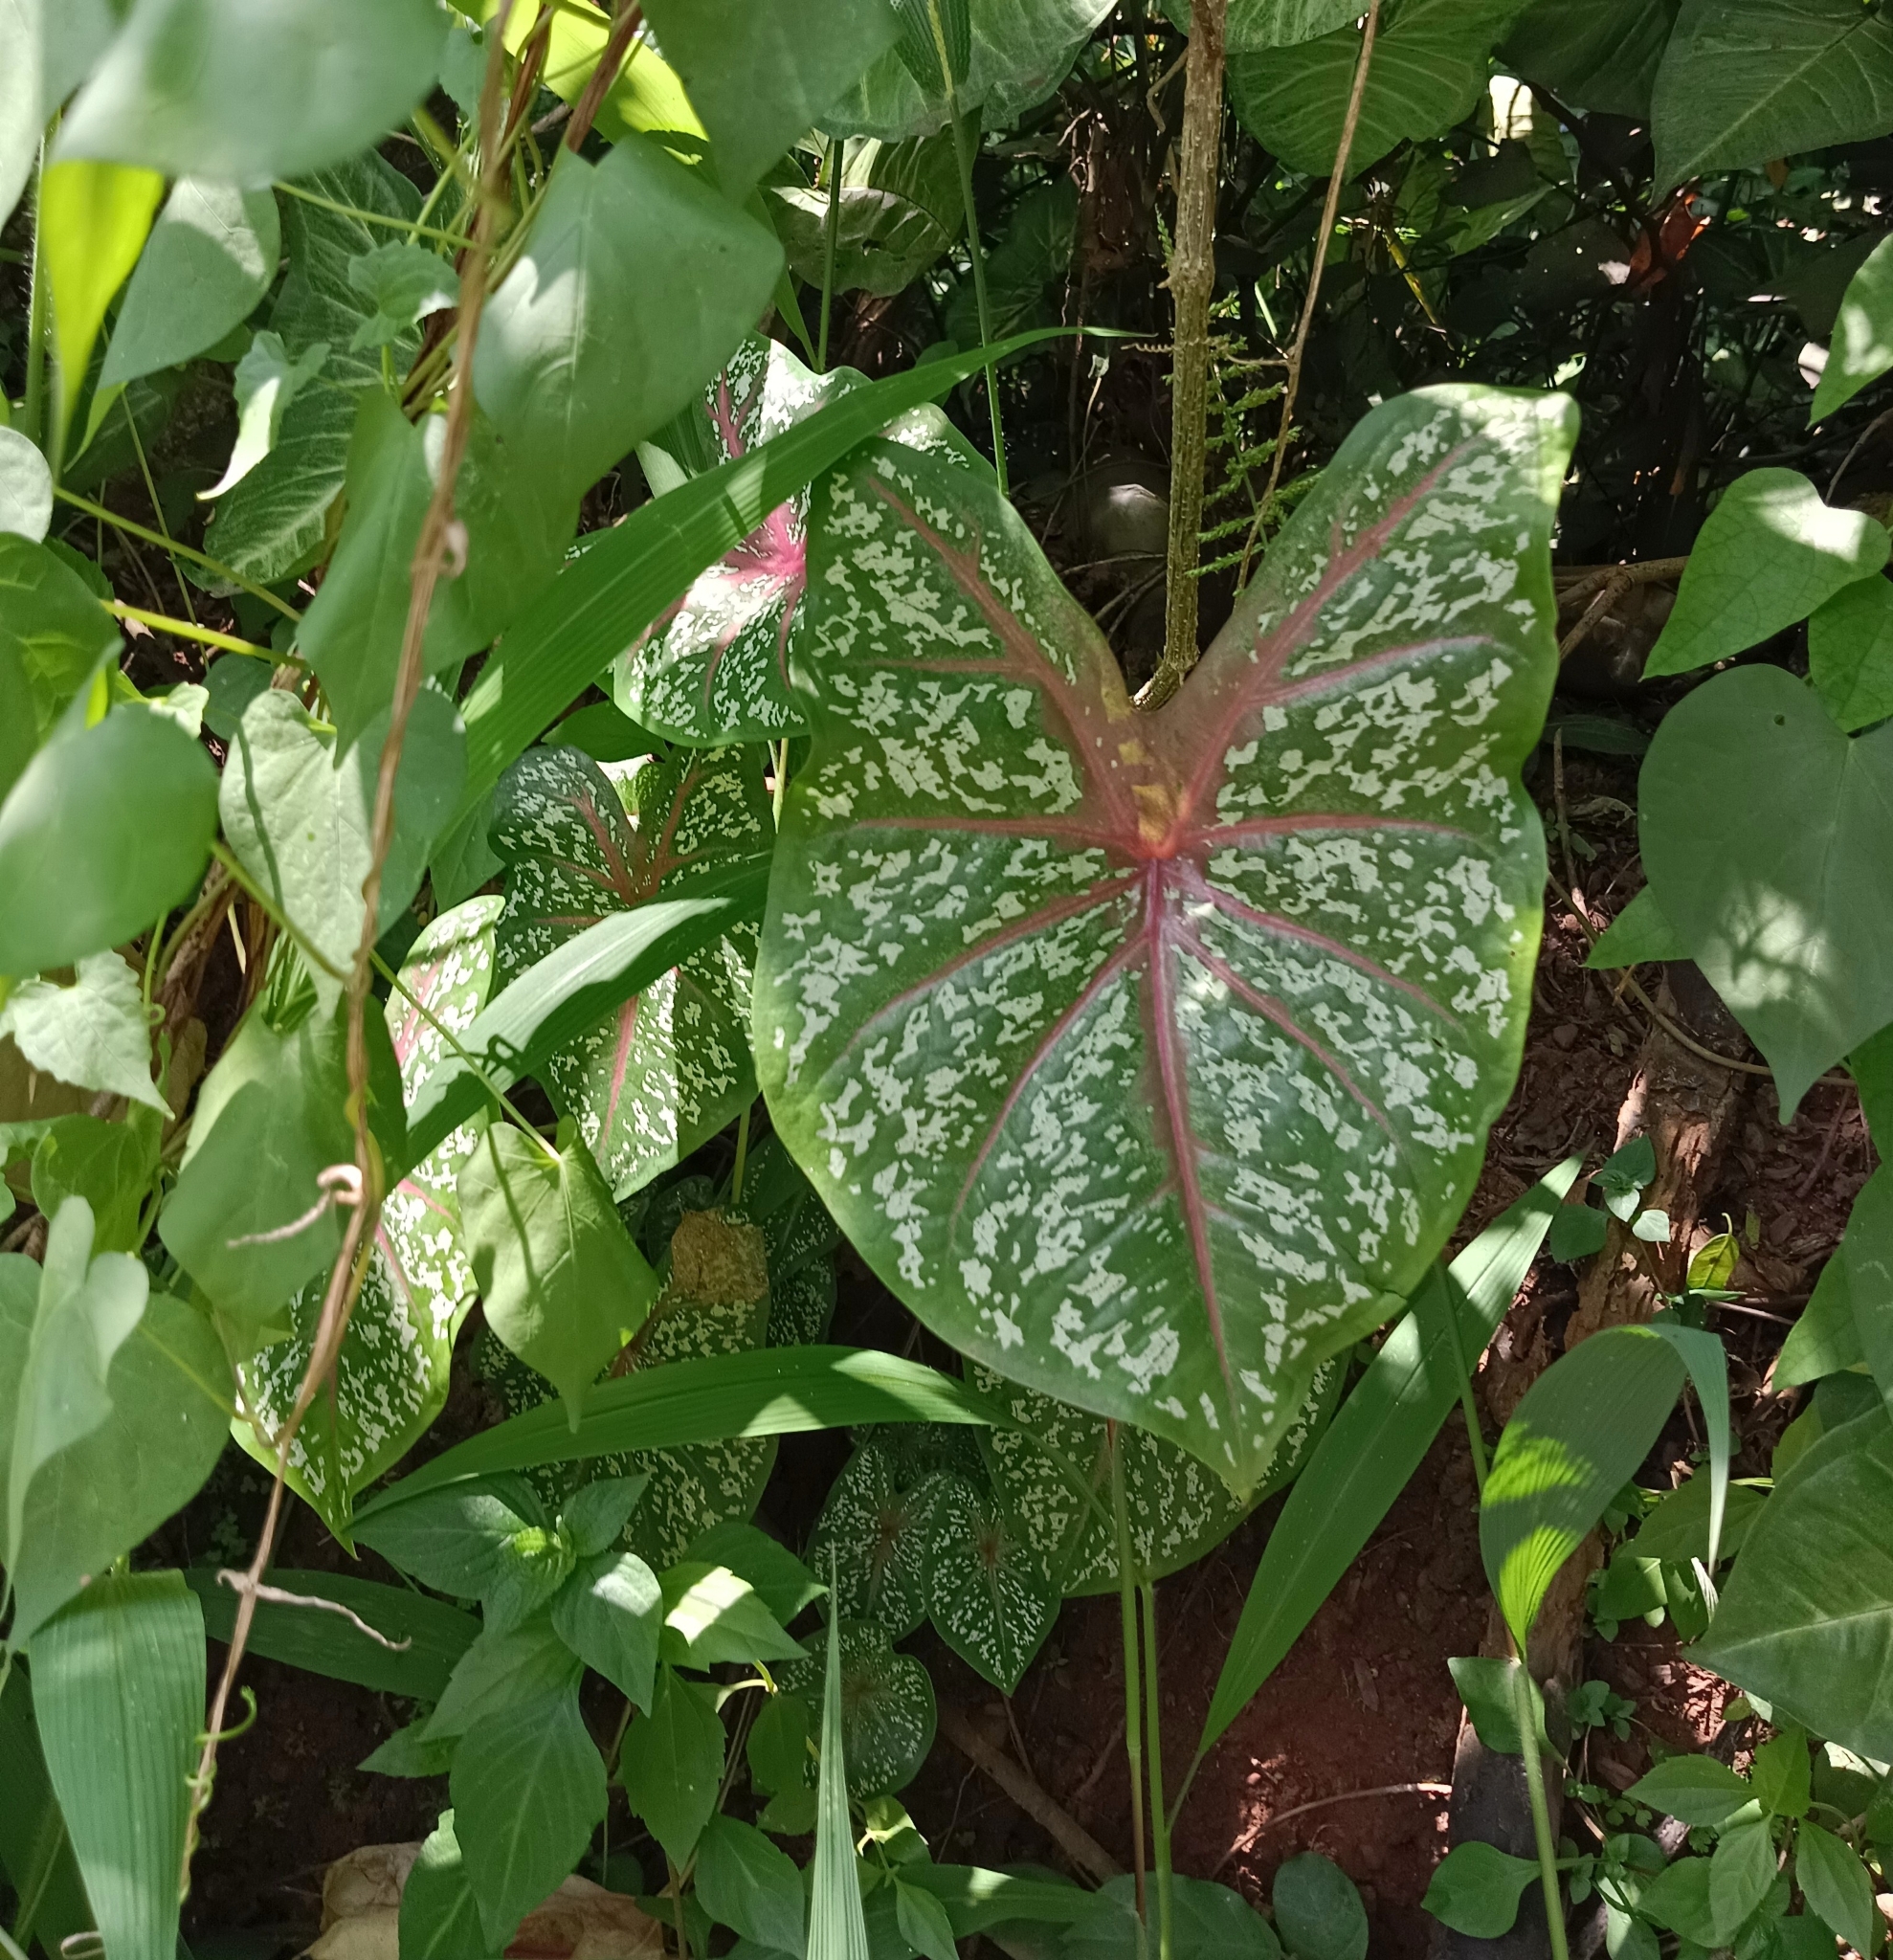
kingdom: Plantae
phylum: Tracheophyta
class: Liliopsida
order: Alismatales
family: Araceae
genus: Caladium
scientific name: Caladium bicolor
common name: Artist's pallet
